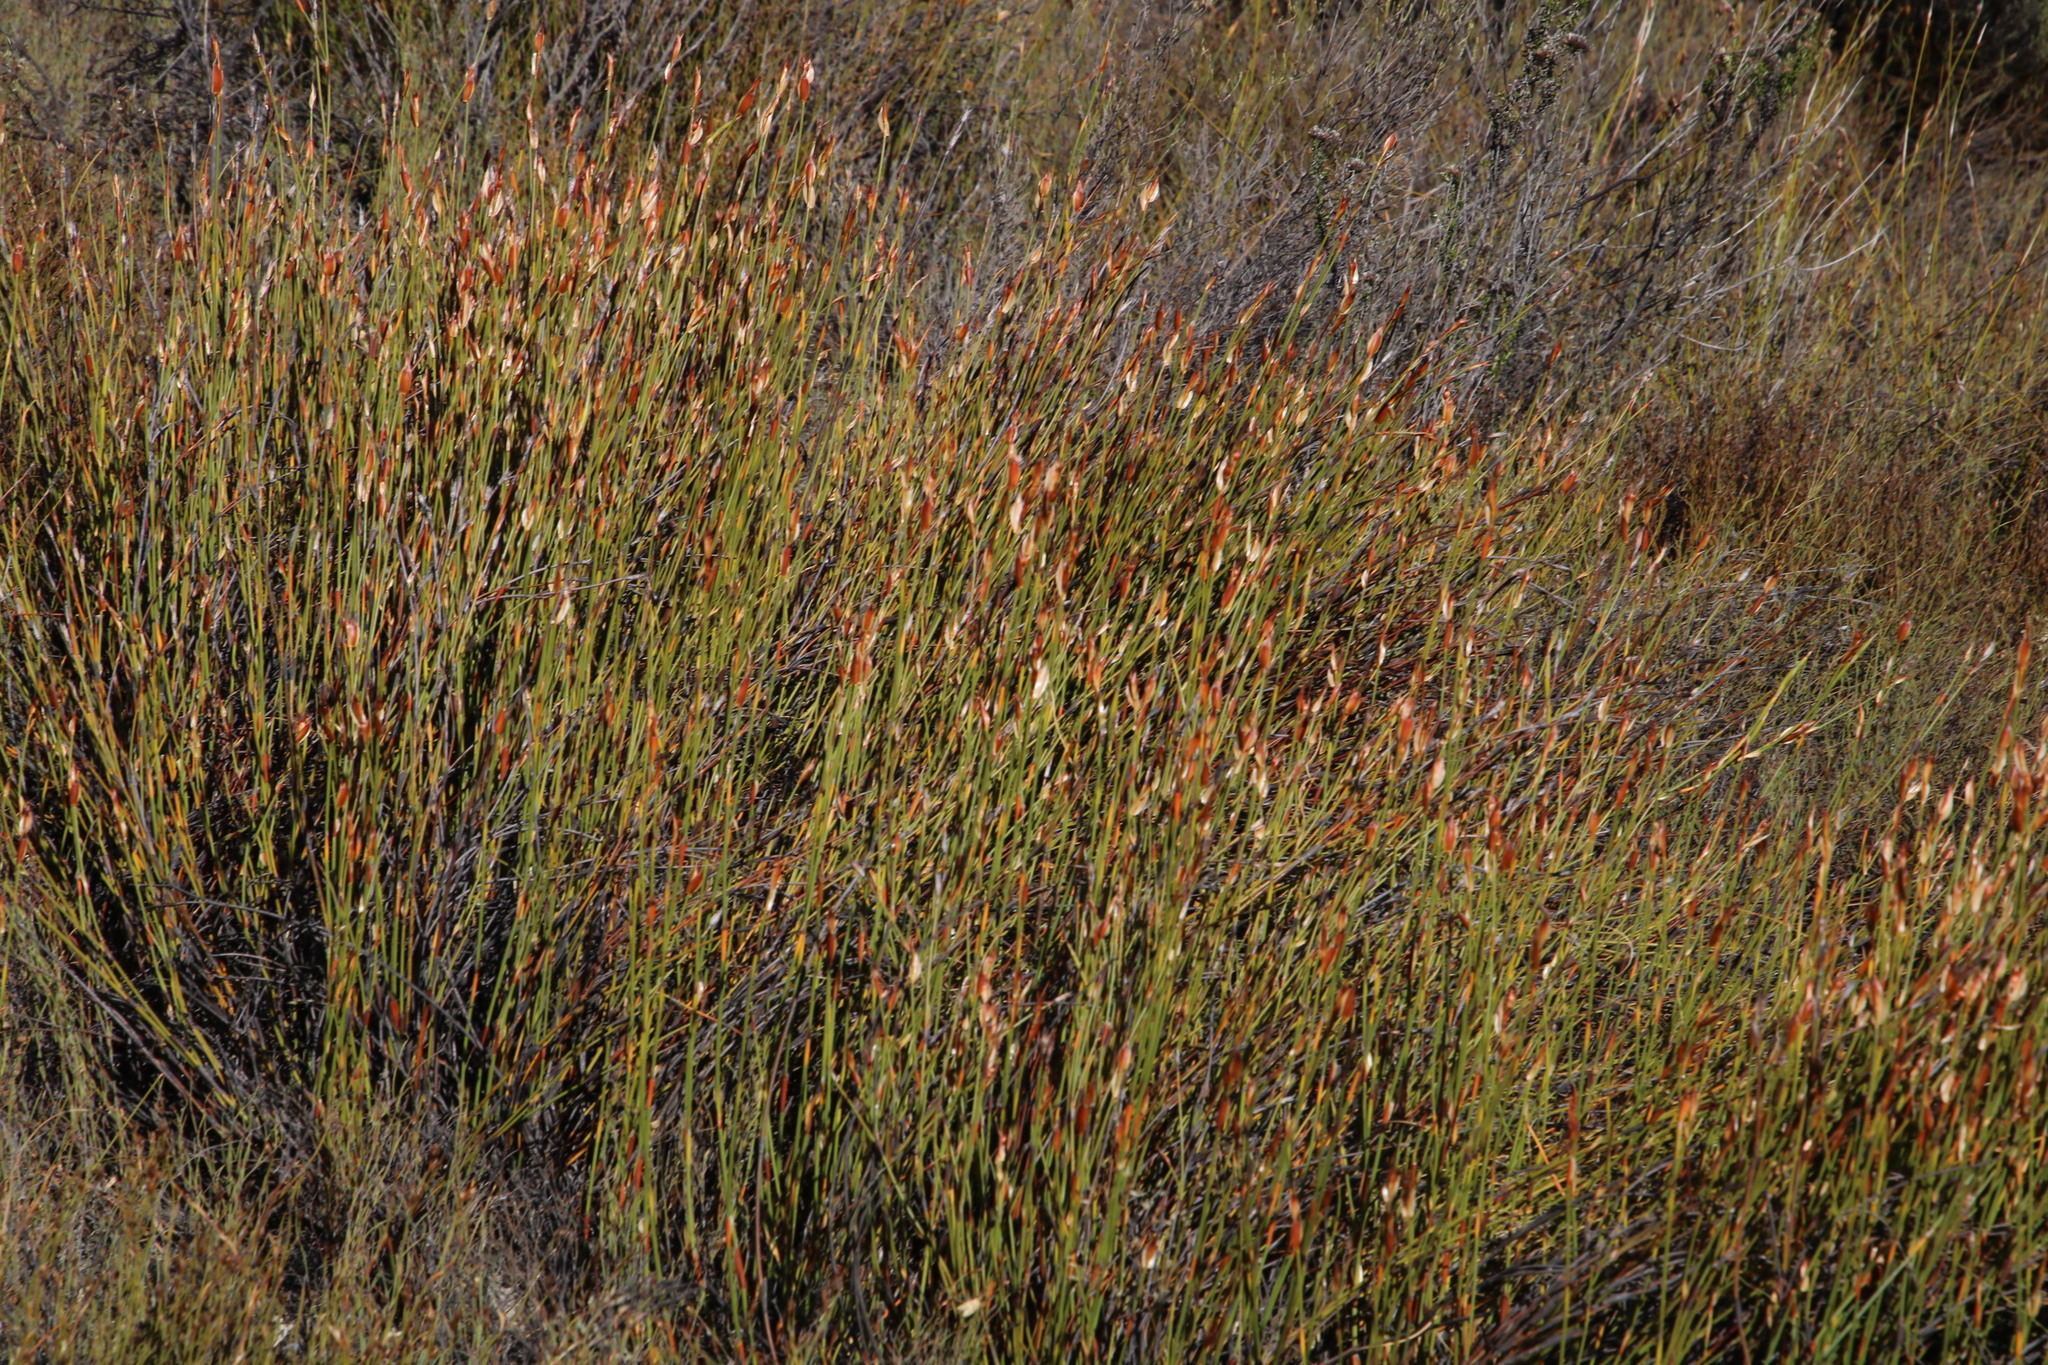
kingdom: Plantae
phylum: Tracheophyta
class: Liliopsida
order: Poales
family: Restionaceae
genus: Willdenowia
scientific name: Willdenowia sulcata
